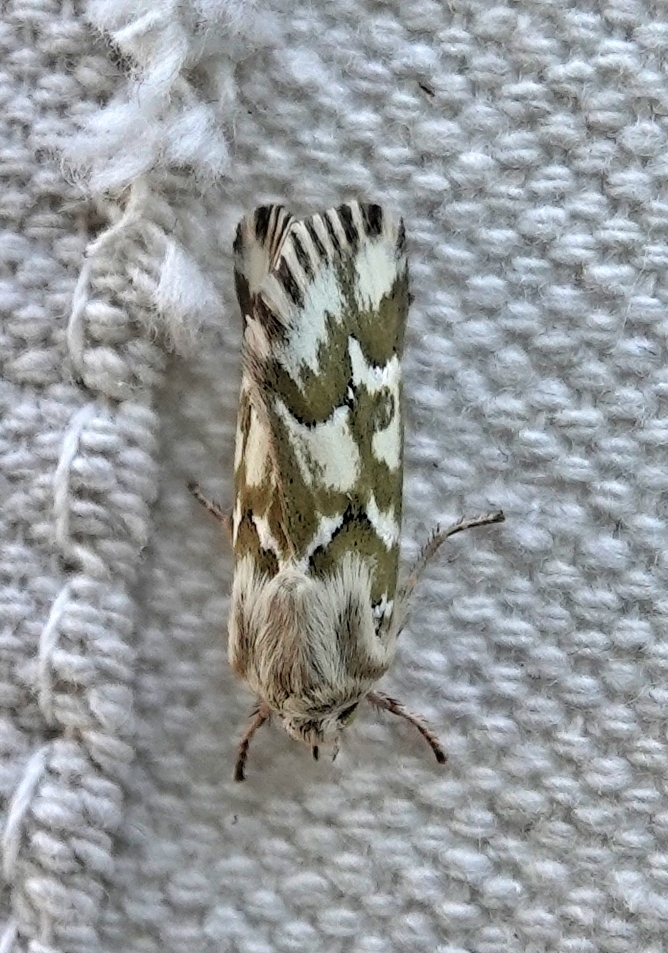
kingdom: Animalia
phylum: Arthropoda
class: Insecta
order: Lepidoptera
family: Noctuidae
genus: Schinia
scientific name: Schinia meadi
